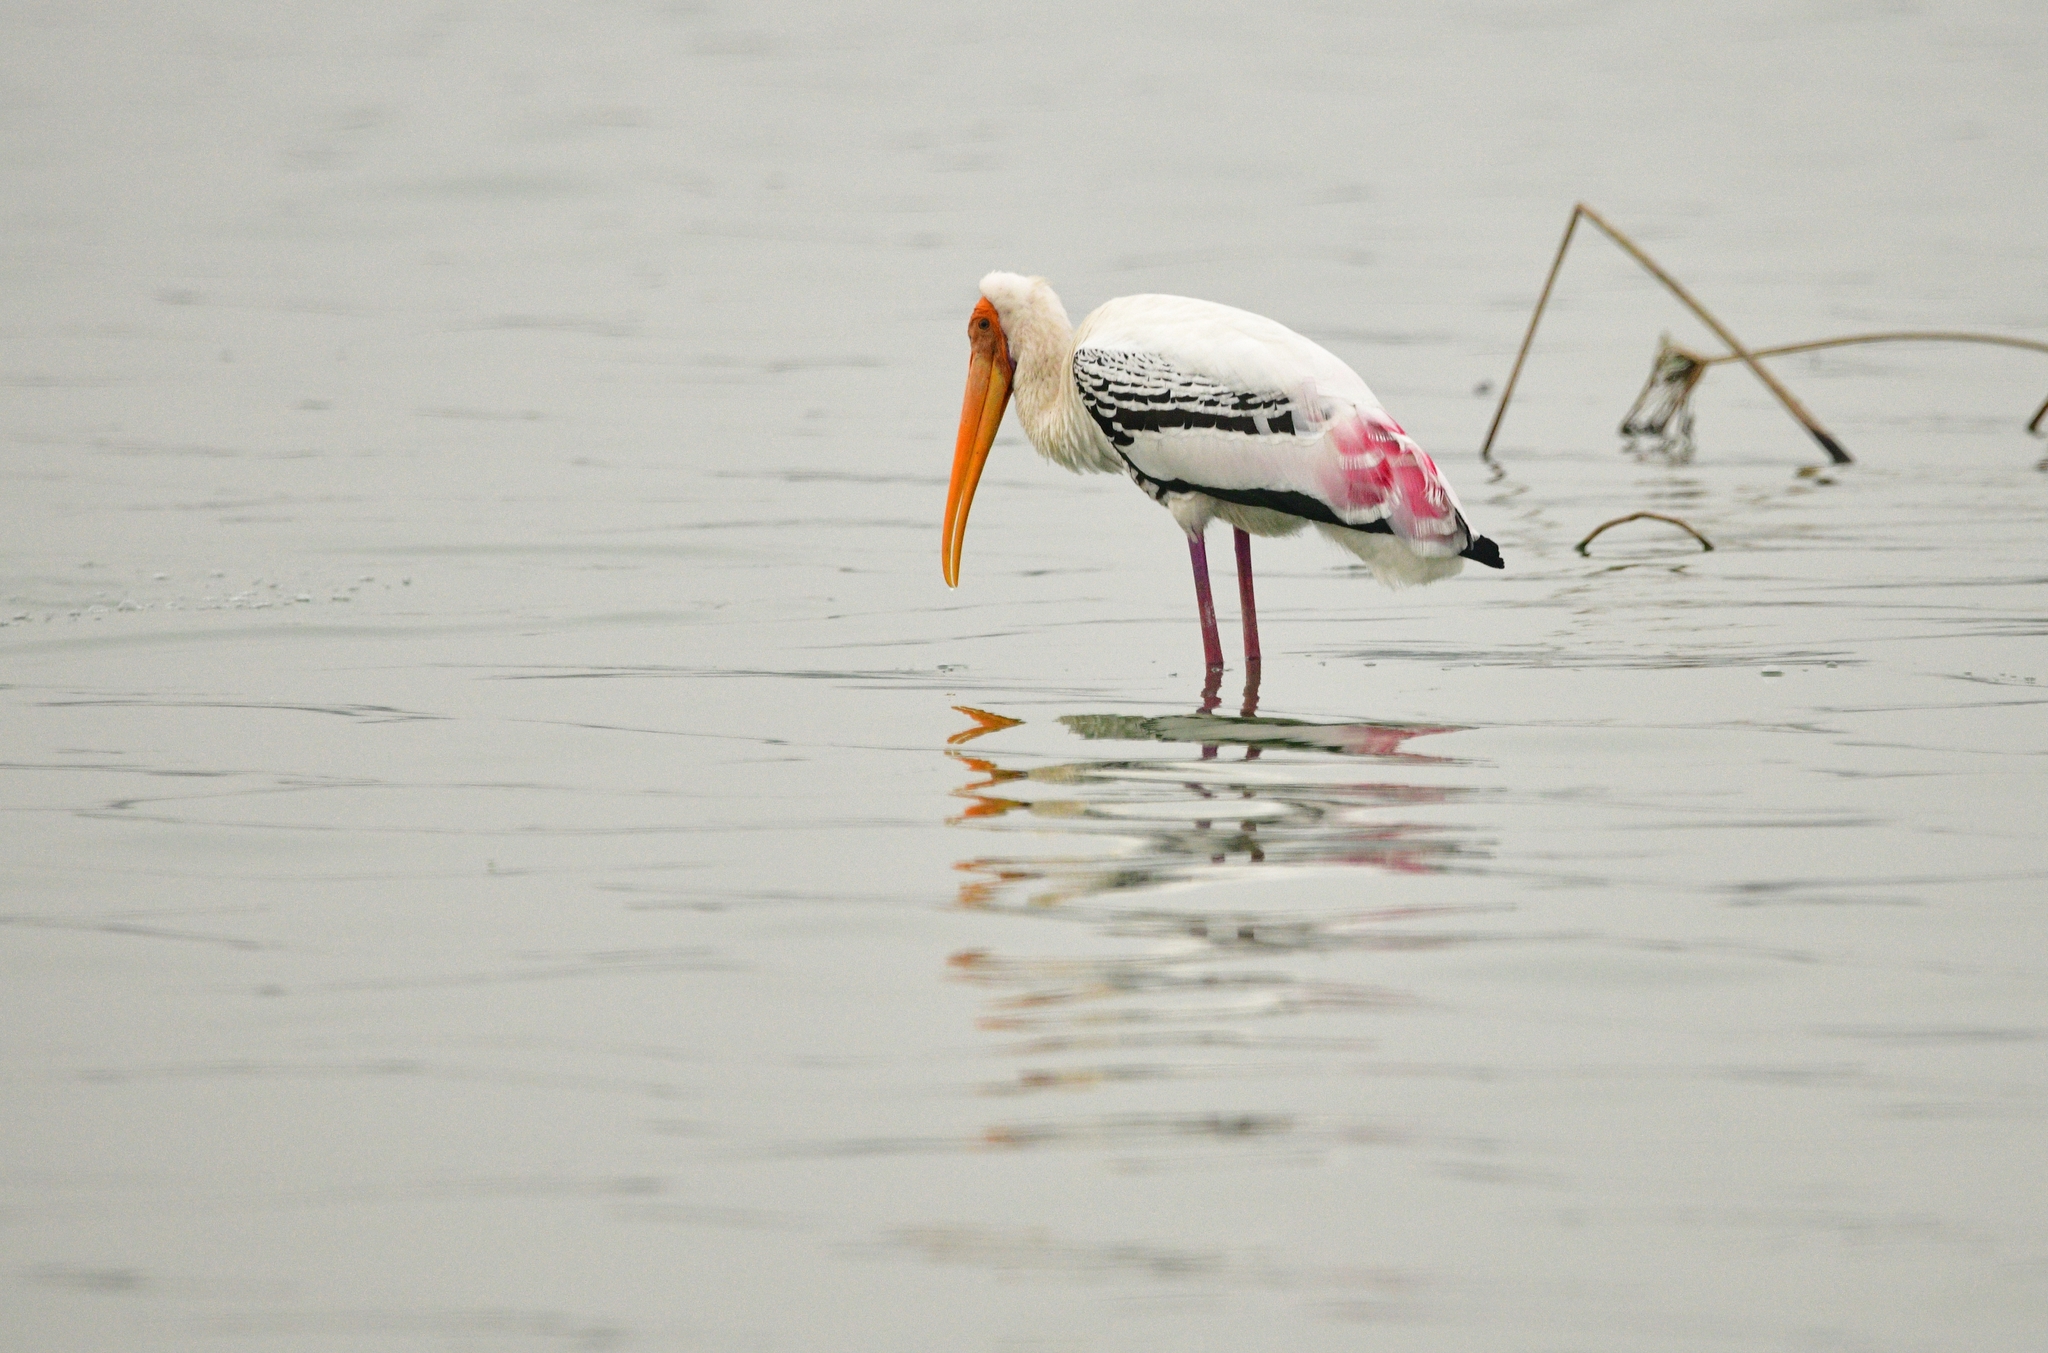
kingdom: Animalia
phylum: Chordata
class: Aves
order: Ciconiiformes
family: Ciconiidae
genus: Mycteria
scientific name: Mycteria leucocephala
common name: Painted stork
